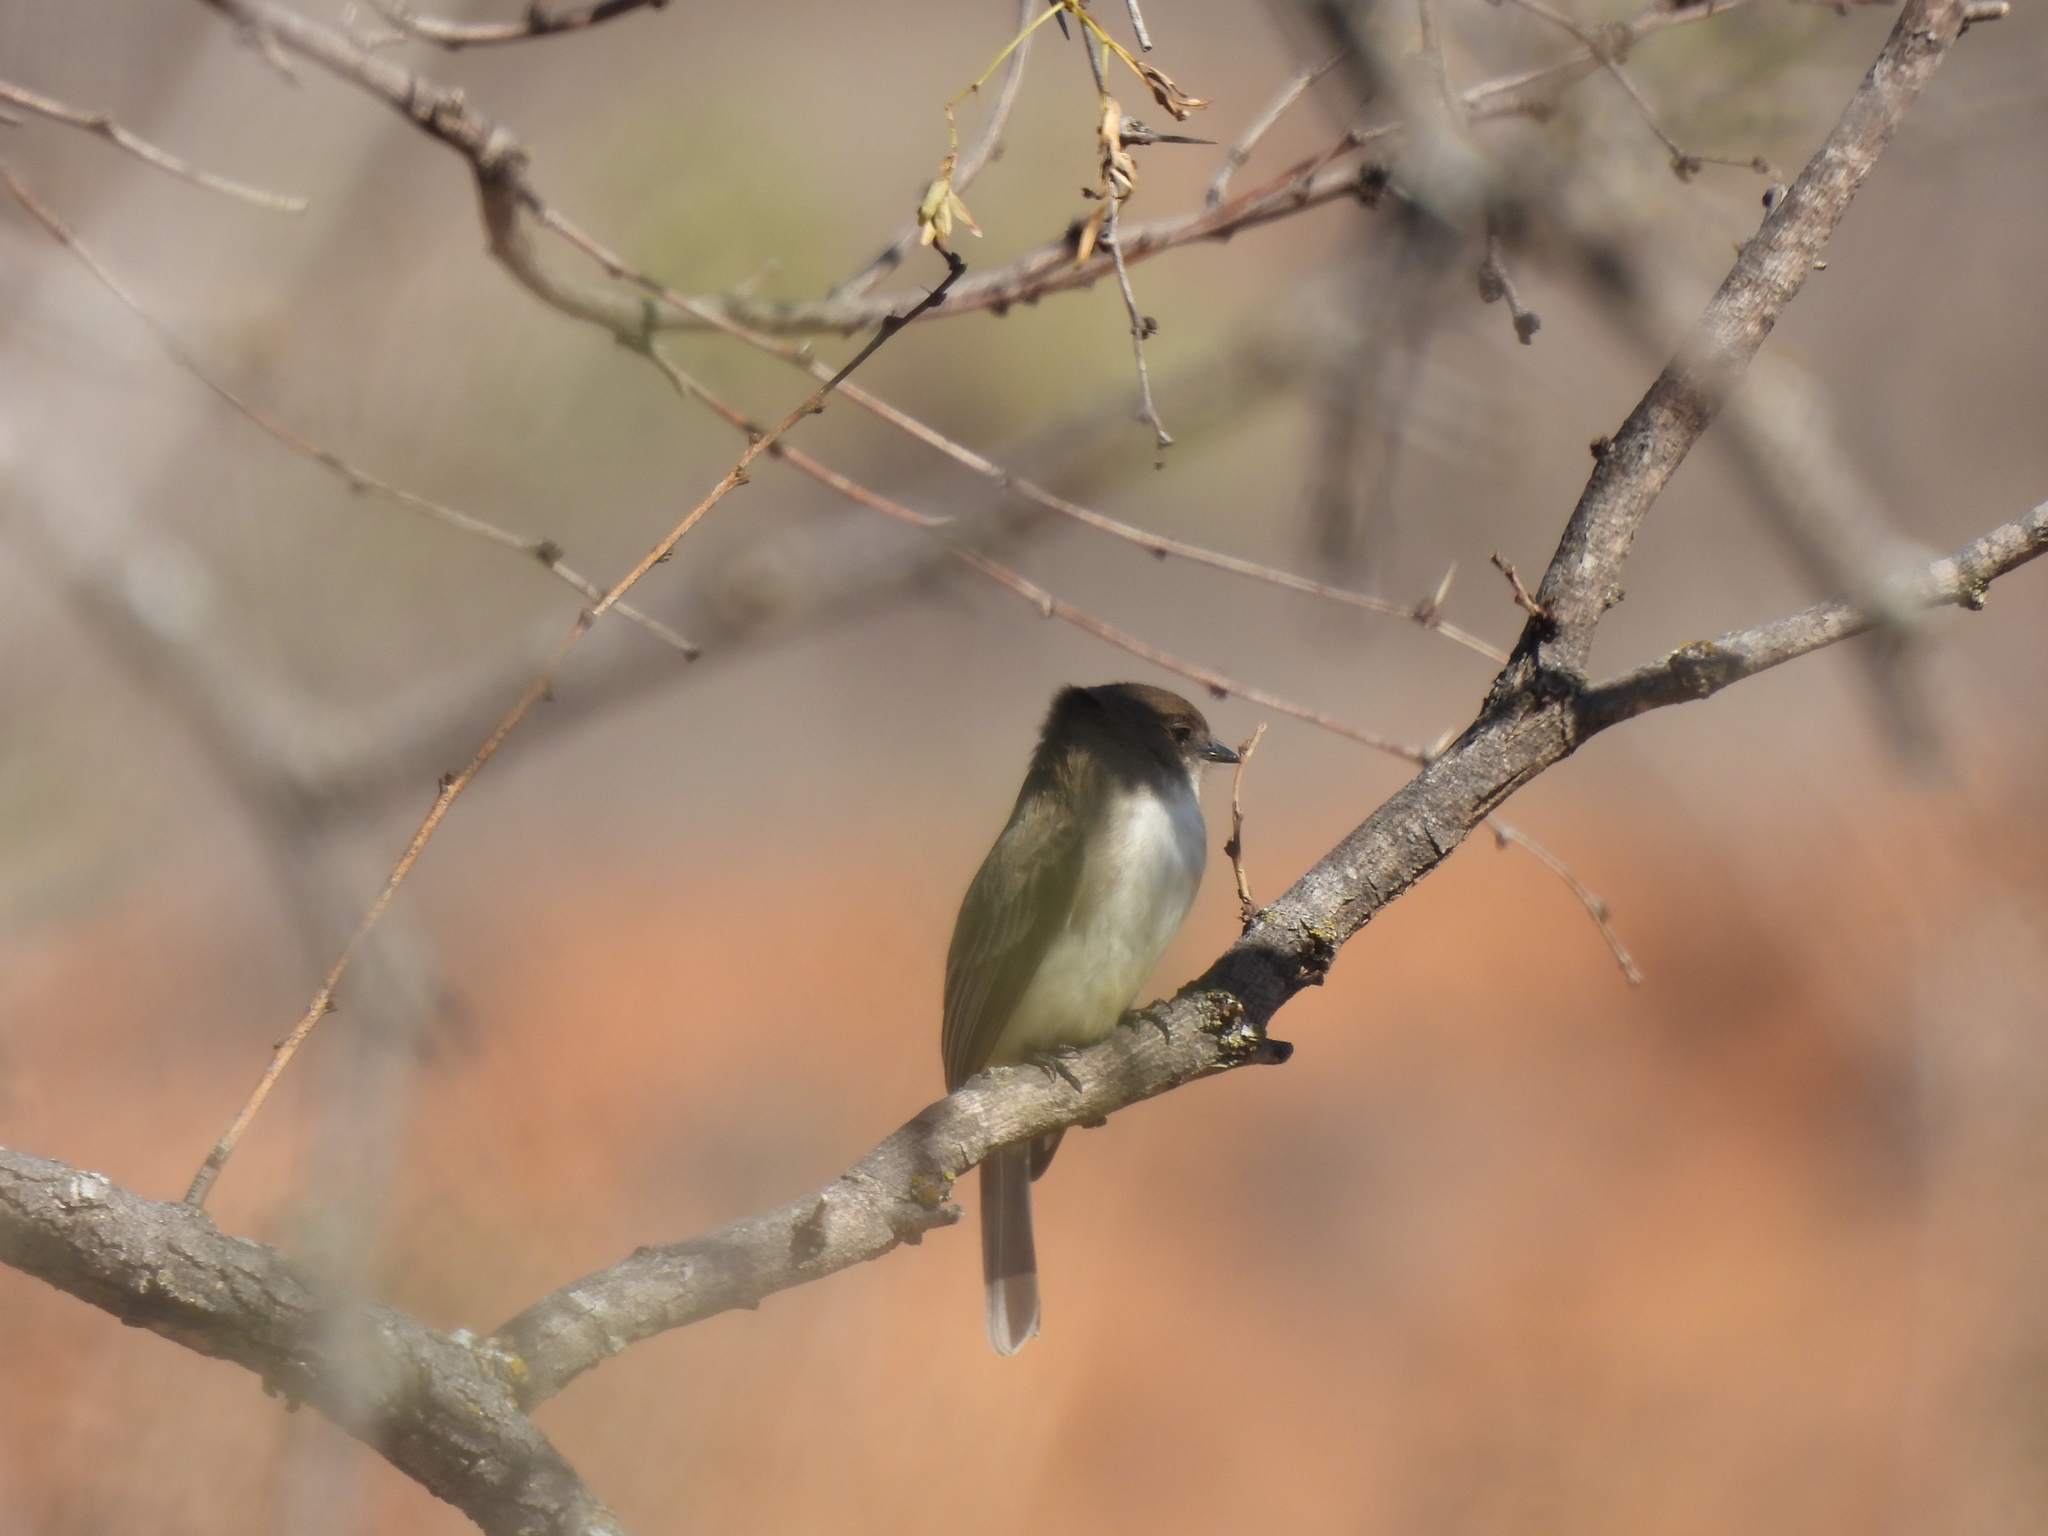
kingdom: Animalia
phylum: Chordata
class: Aves
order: Passeriformes
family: Tyrannidae
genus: Sayornis
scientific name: Sayornis phoebe
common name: Eastern phoebe
